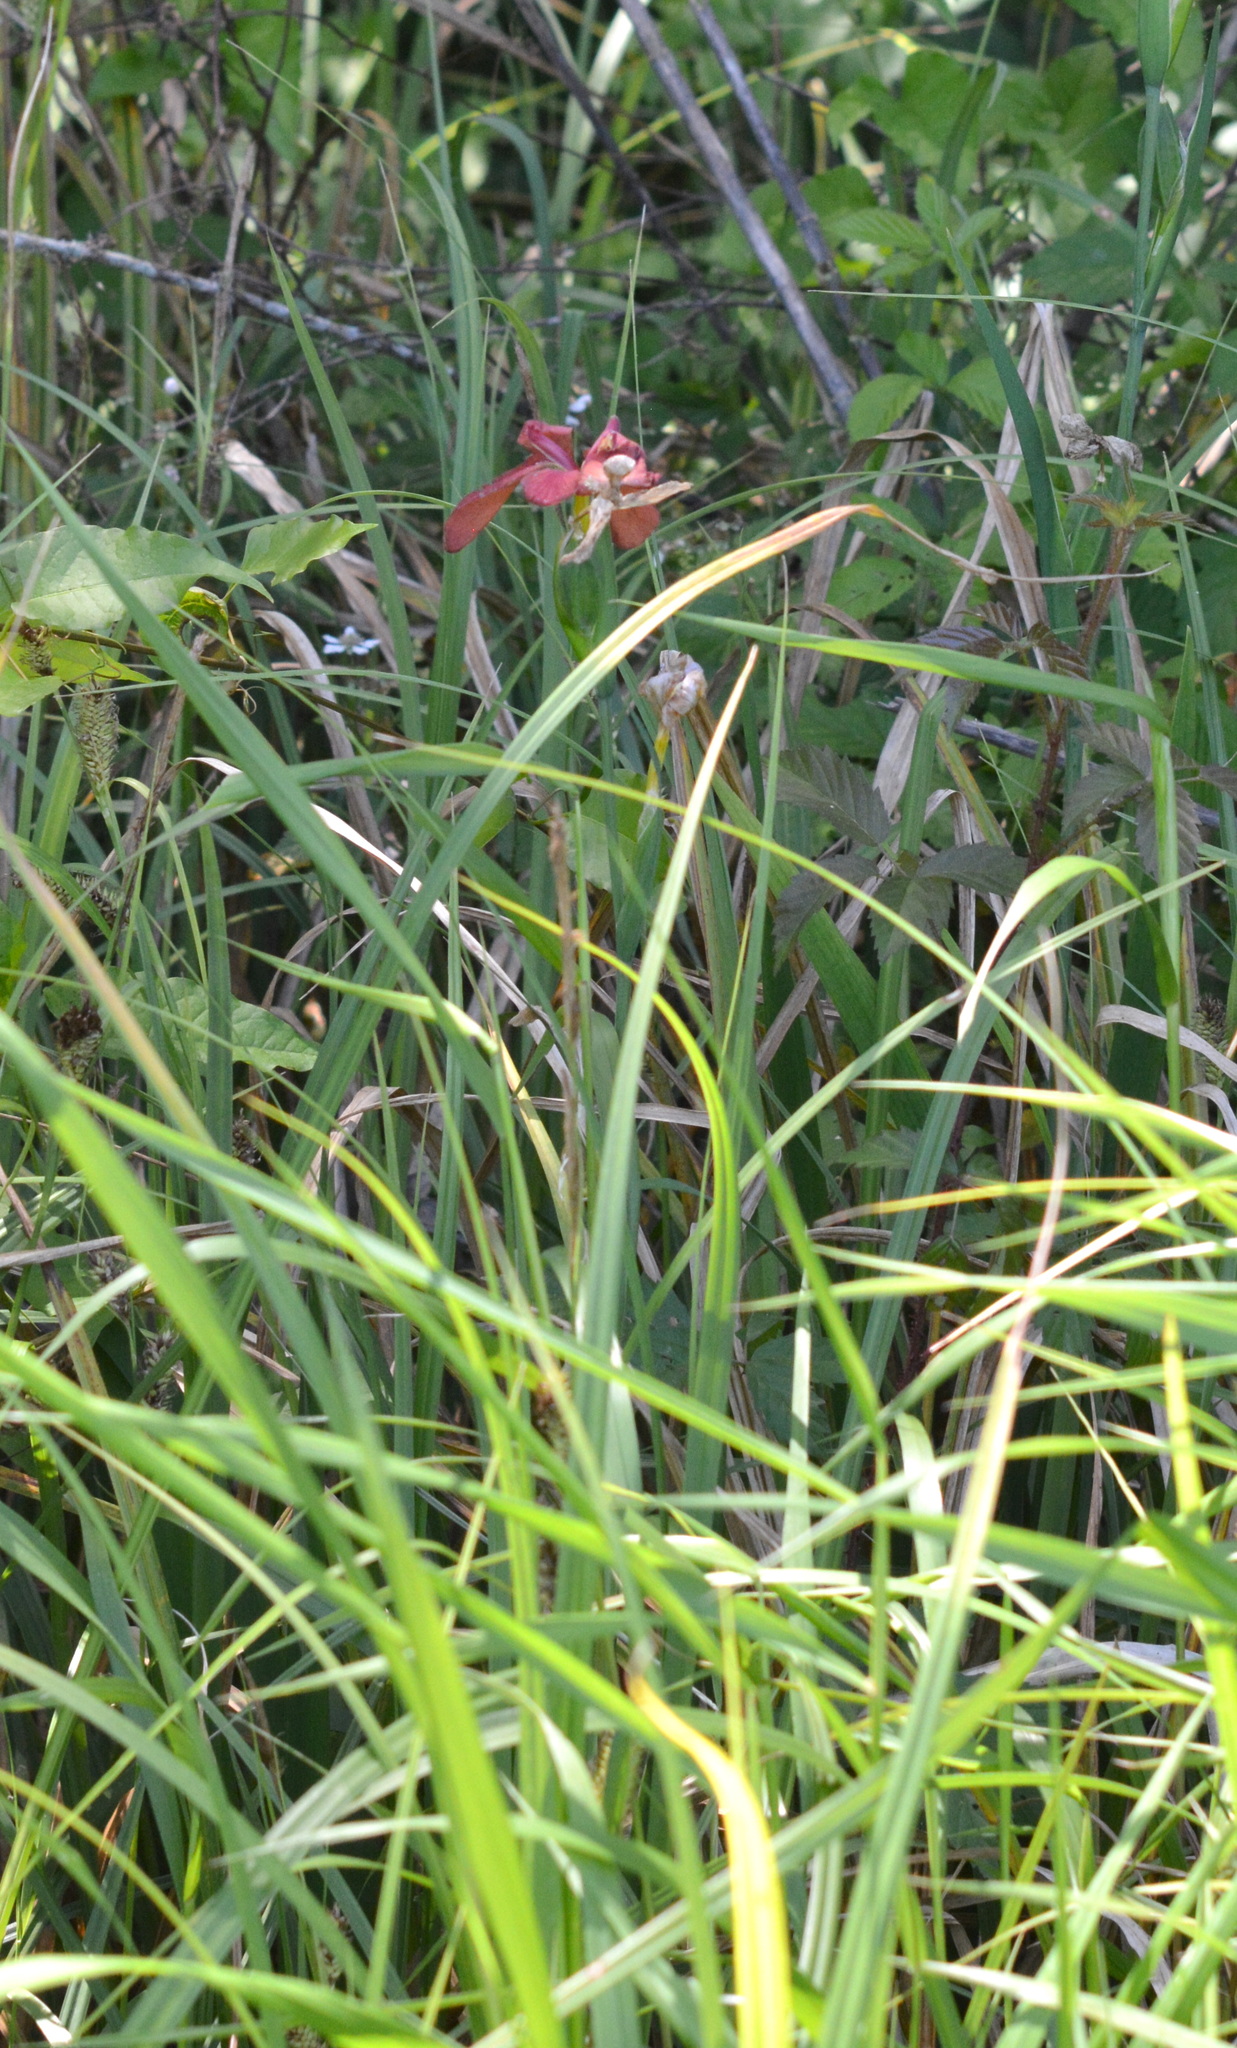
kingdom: Plantae
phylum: Tracheophyta
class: Liliopsida
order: Asparagales
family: Iridaceae
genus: Iris
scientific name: Iris fulva
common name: Copper iris
